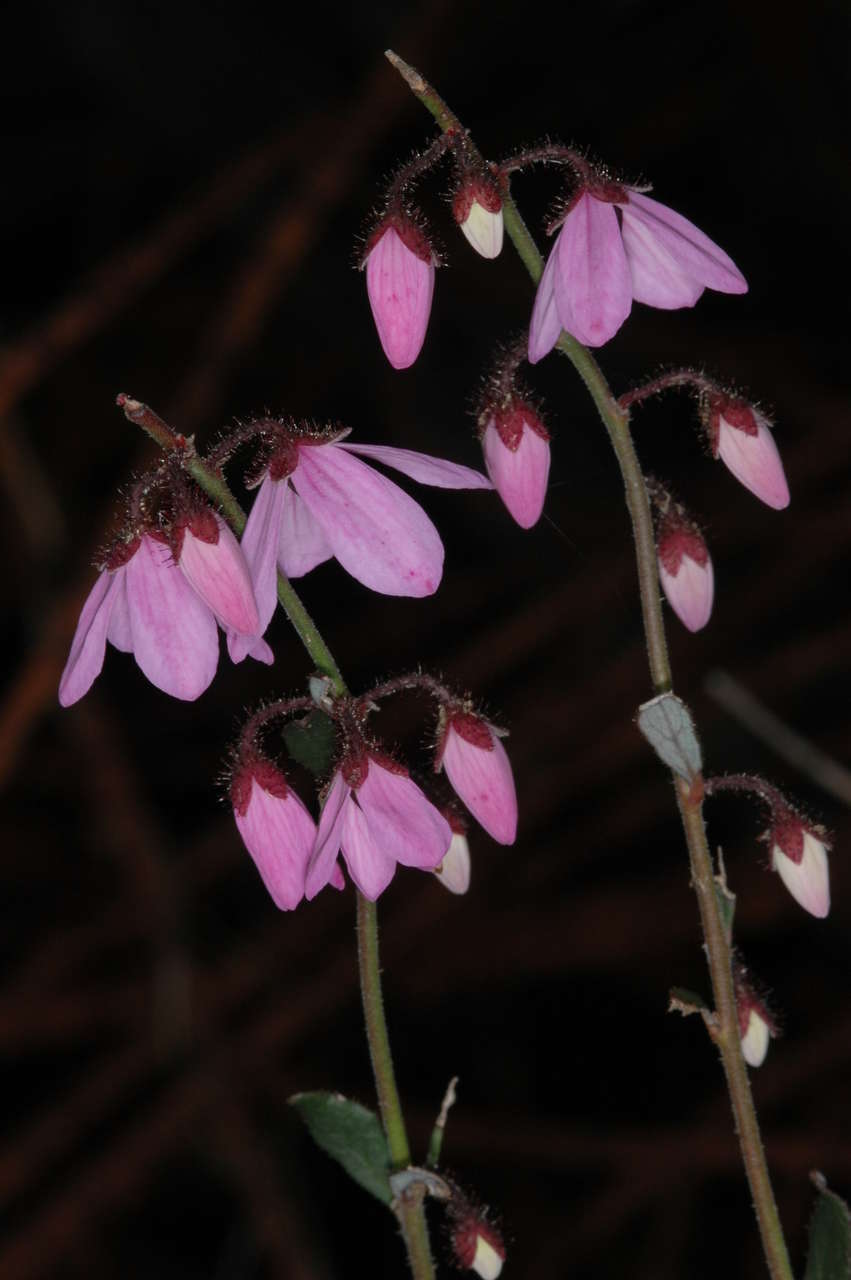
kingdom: Plantae
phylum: Tracheophyta
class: Magnoliopsida
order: Oxalidales
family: Elaeocarpaceae
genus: Tetratheca
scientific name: Tetratheca ciliata
